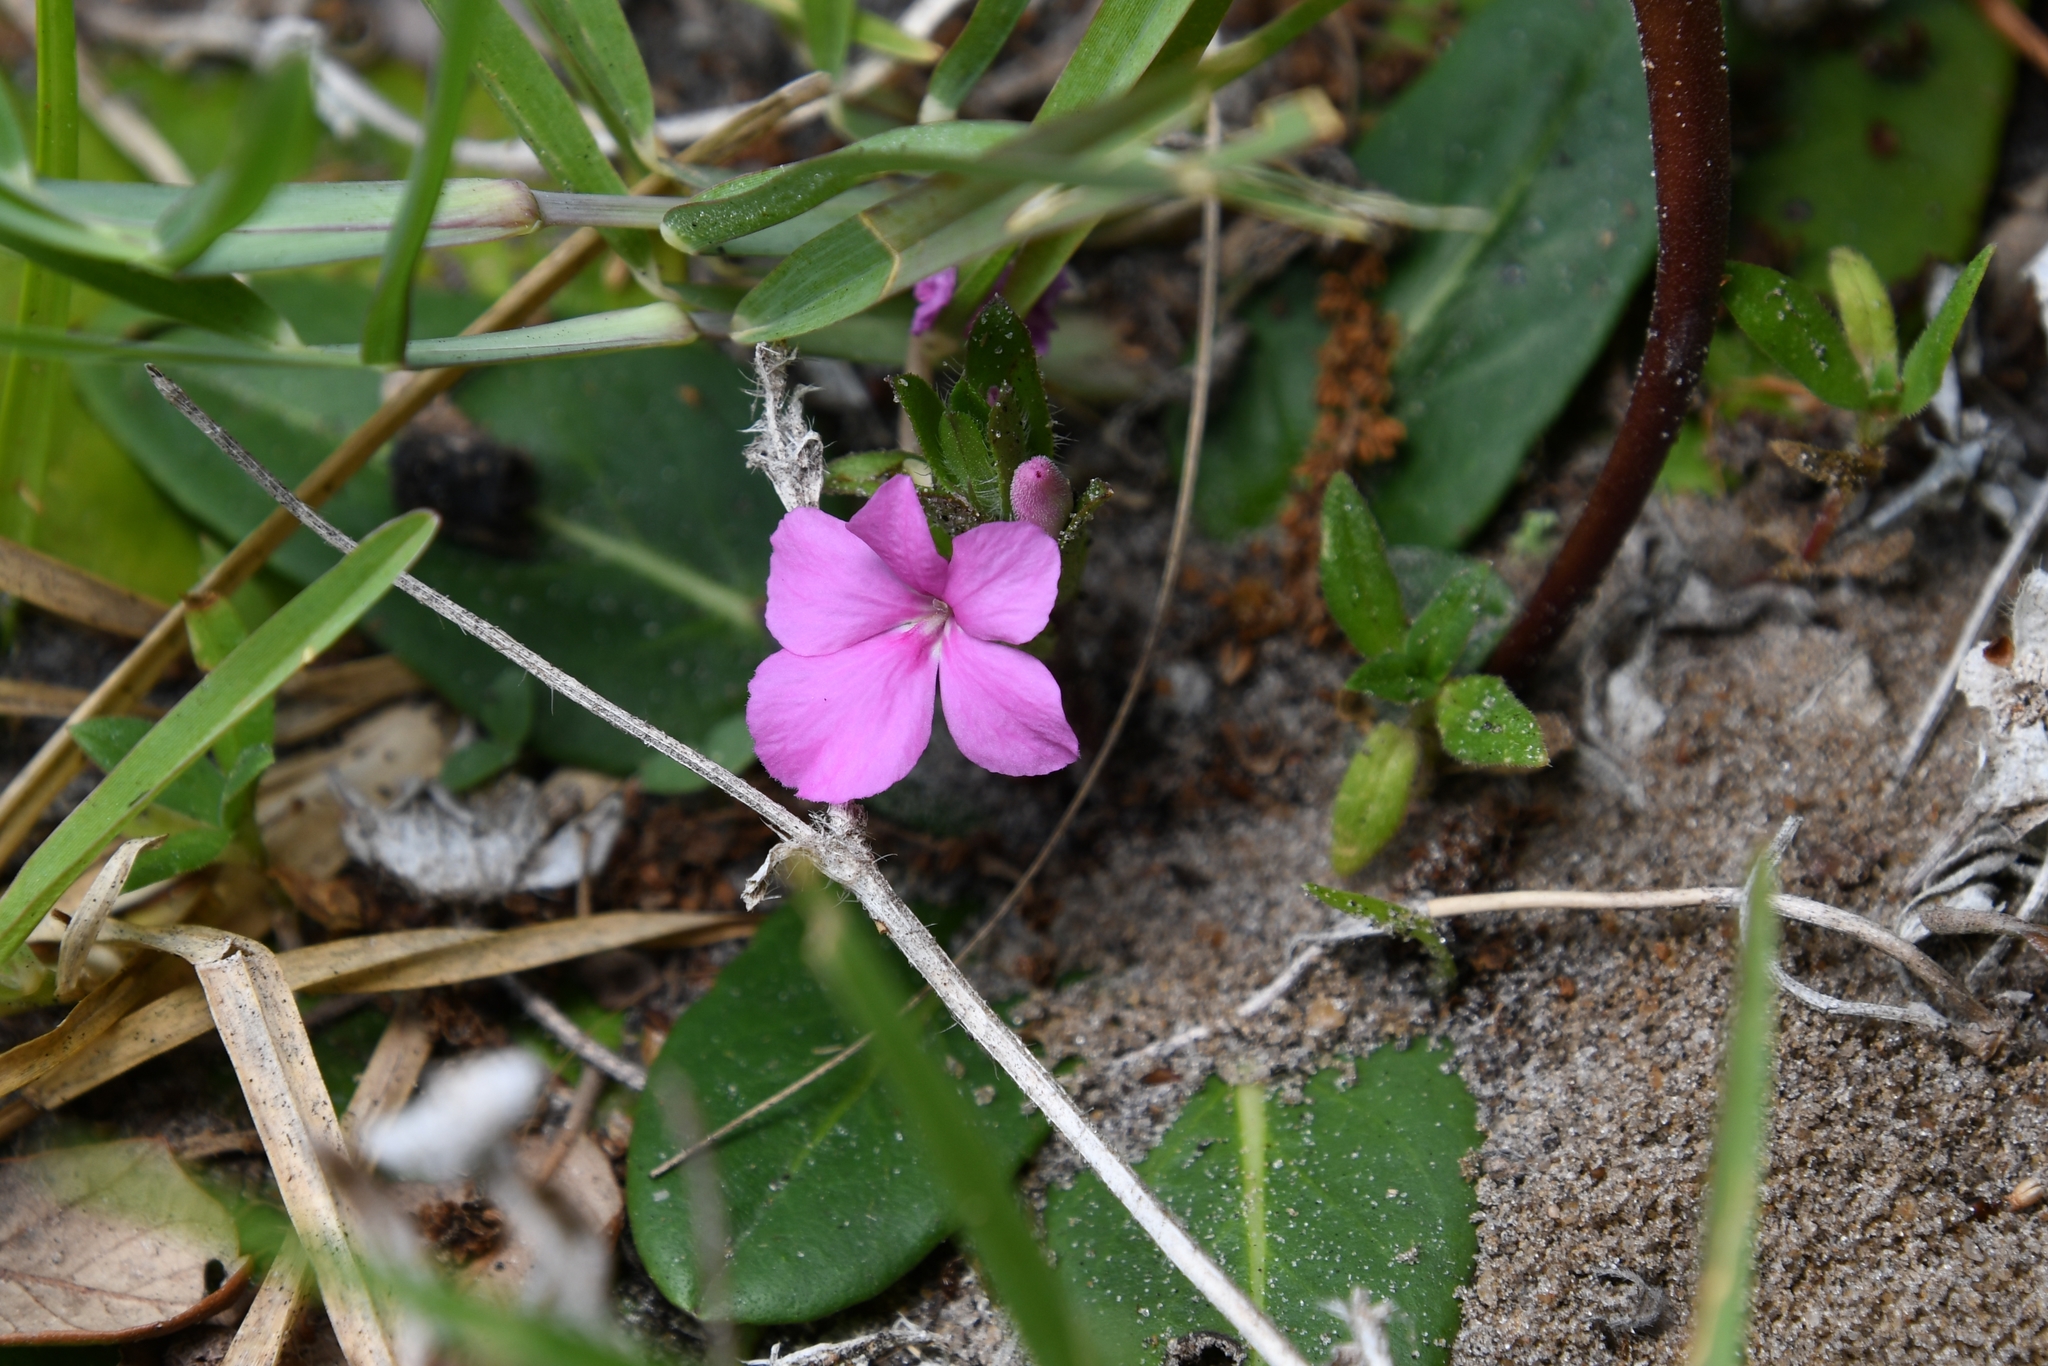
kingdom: Plantae
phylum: Tracheophyta
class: Magnoliopsida
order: Lamiales
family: Acanthaceae
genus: Stenandrium
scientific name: Stenandrium dulce
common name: Pinklet
